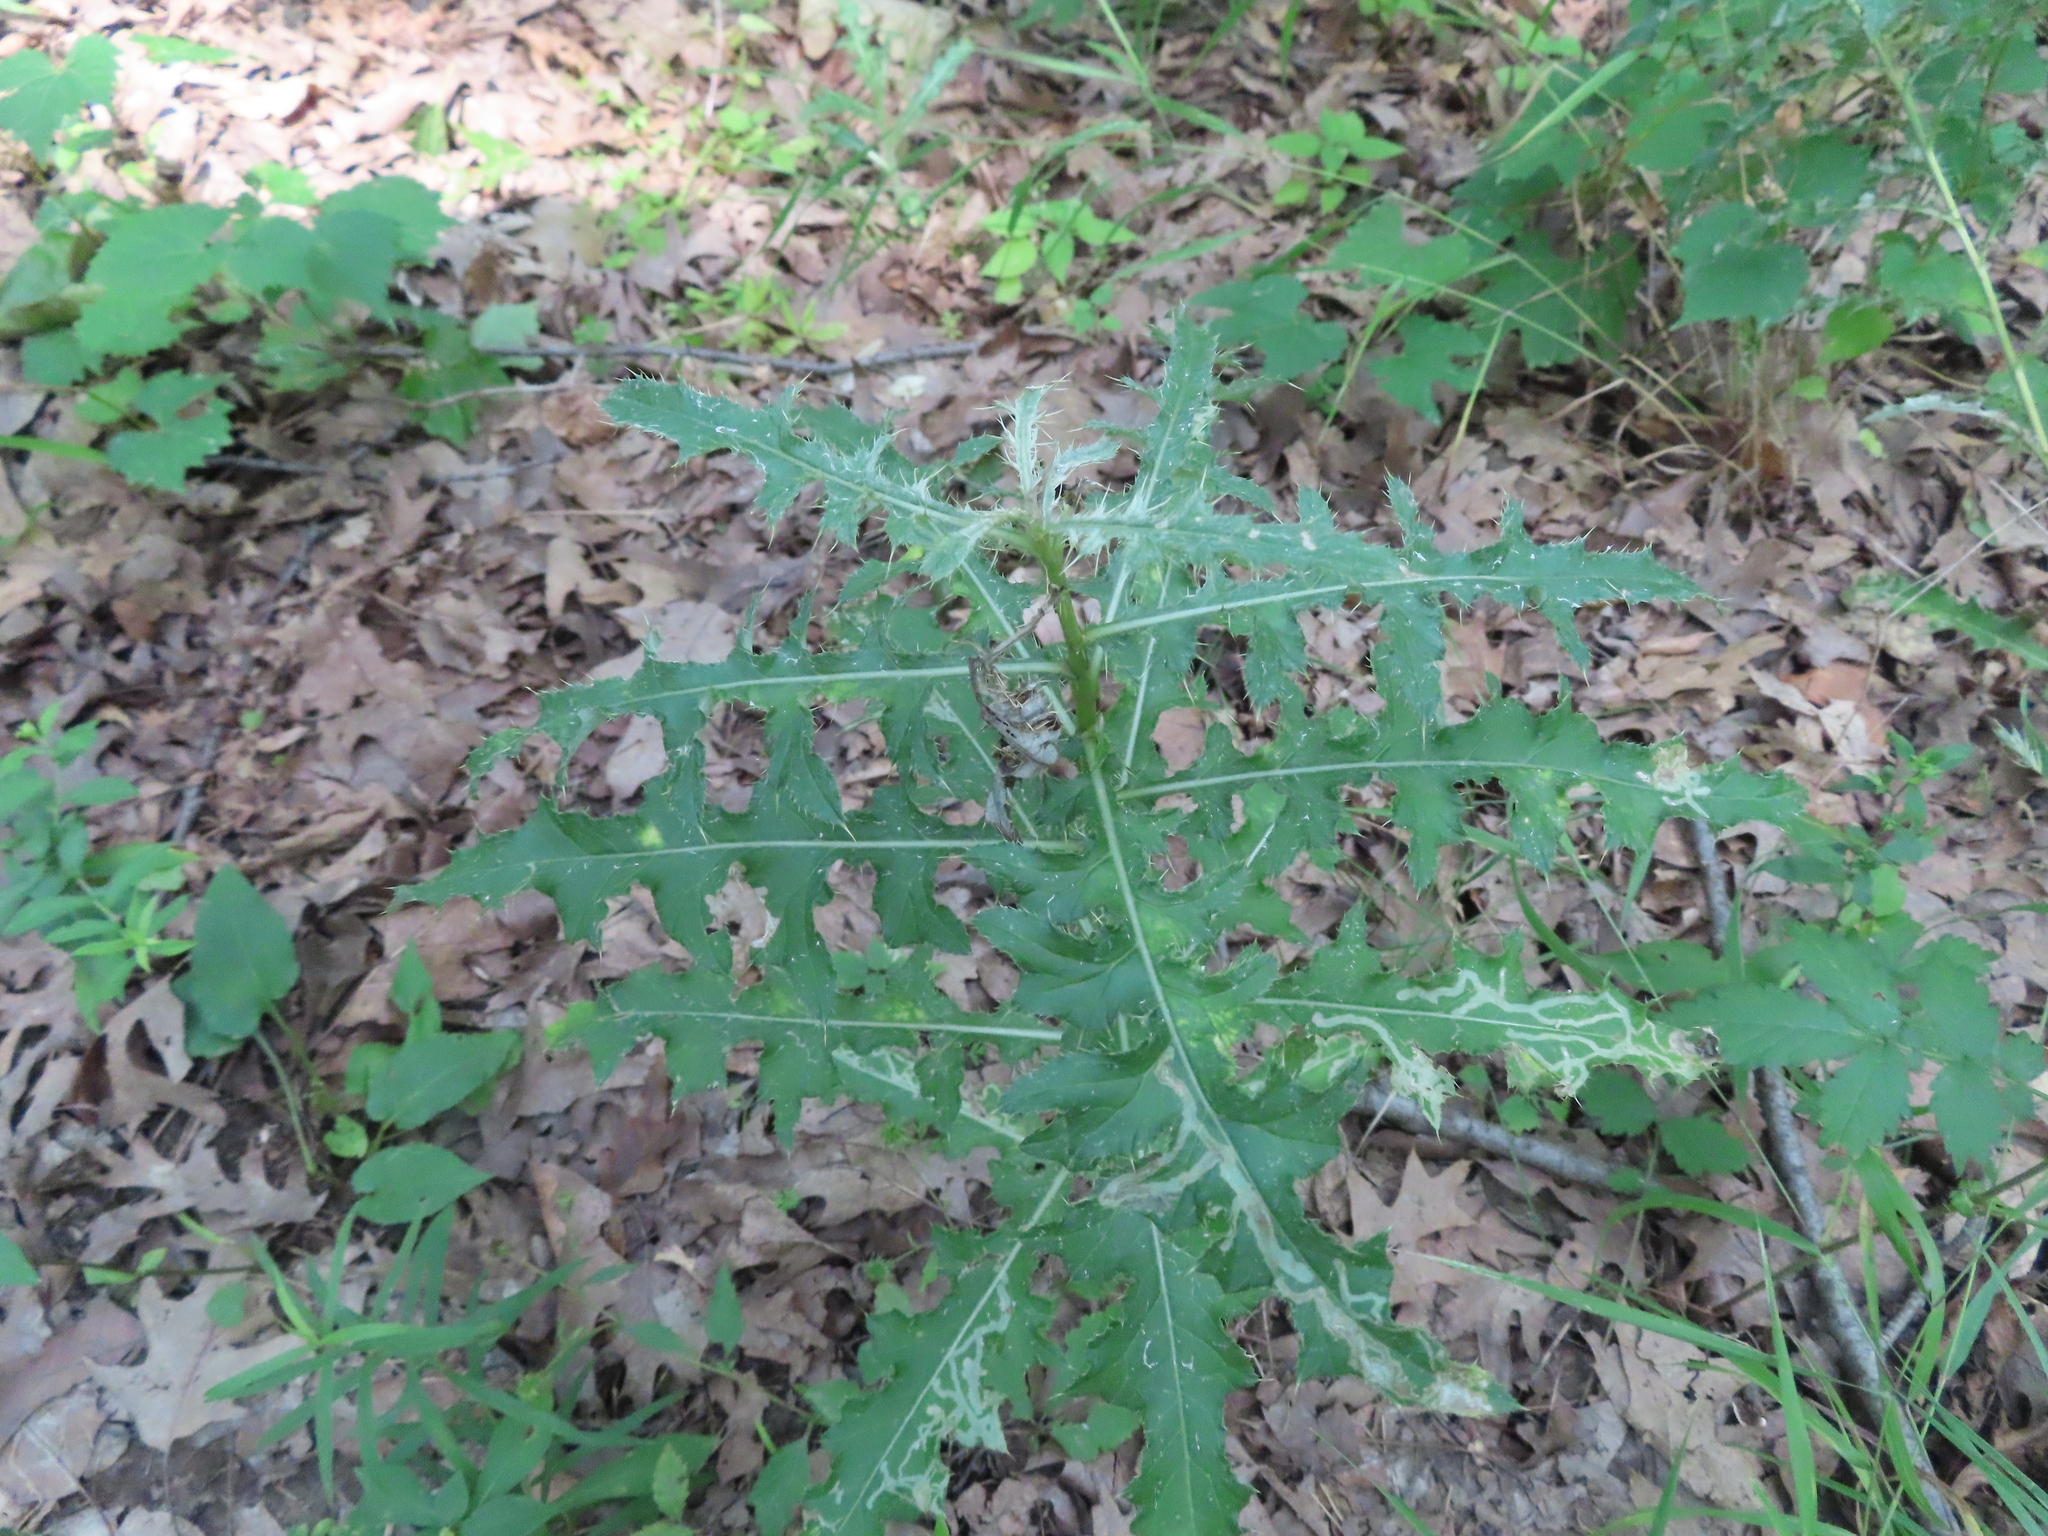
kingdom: Plantae
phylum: Tracheophyta
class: Magnoliopsida
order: Asterales
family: Asteraceae
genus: Cirsium
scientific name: Cirsium arvense
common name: Creeping thistle
